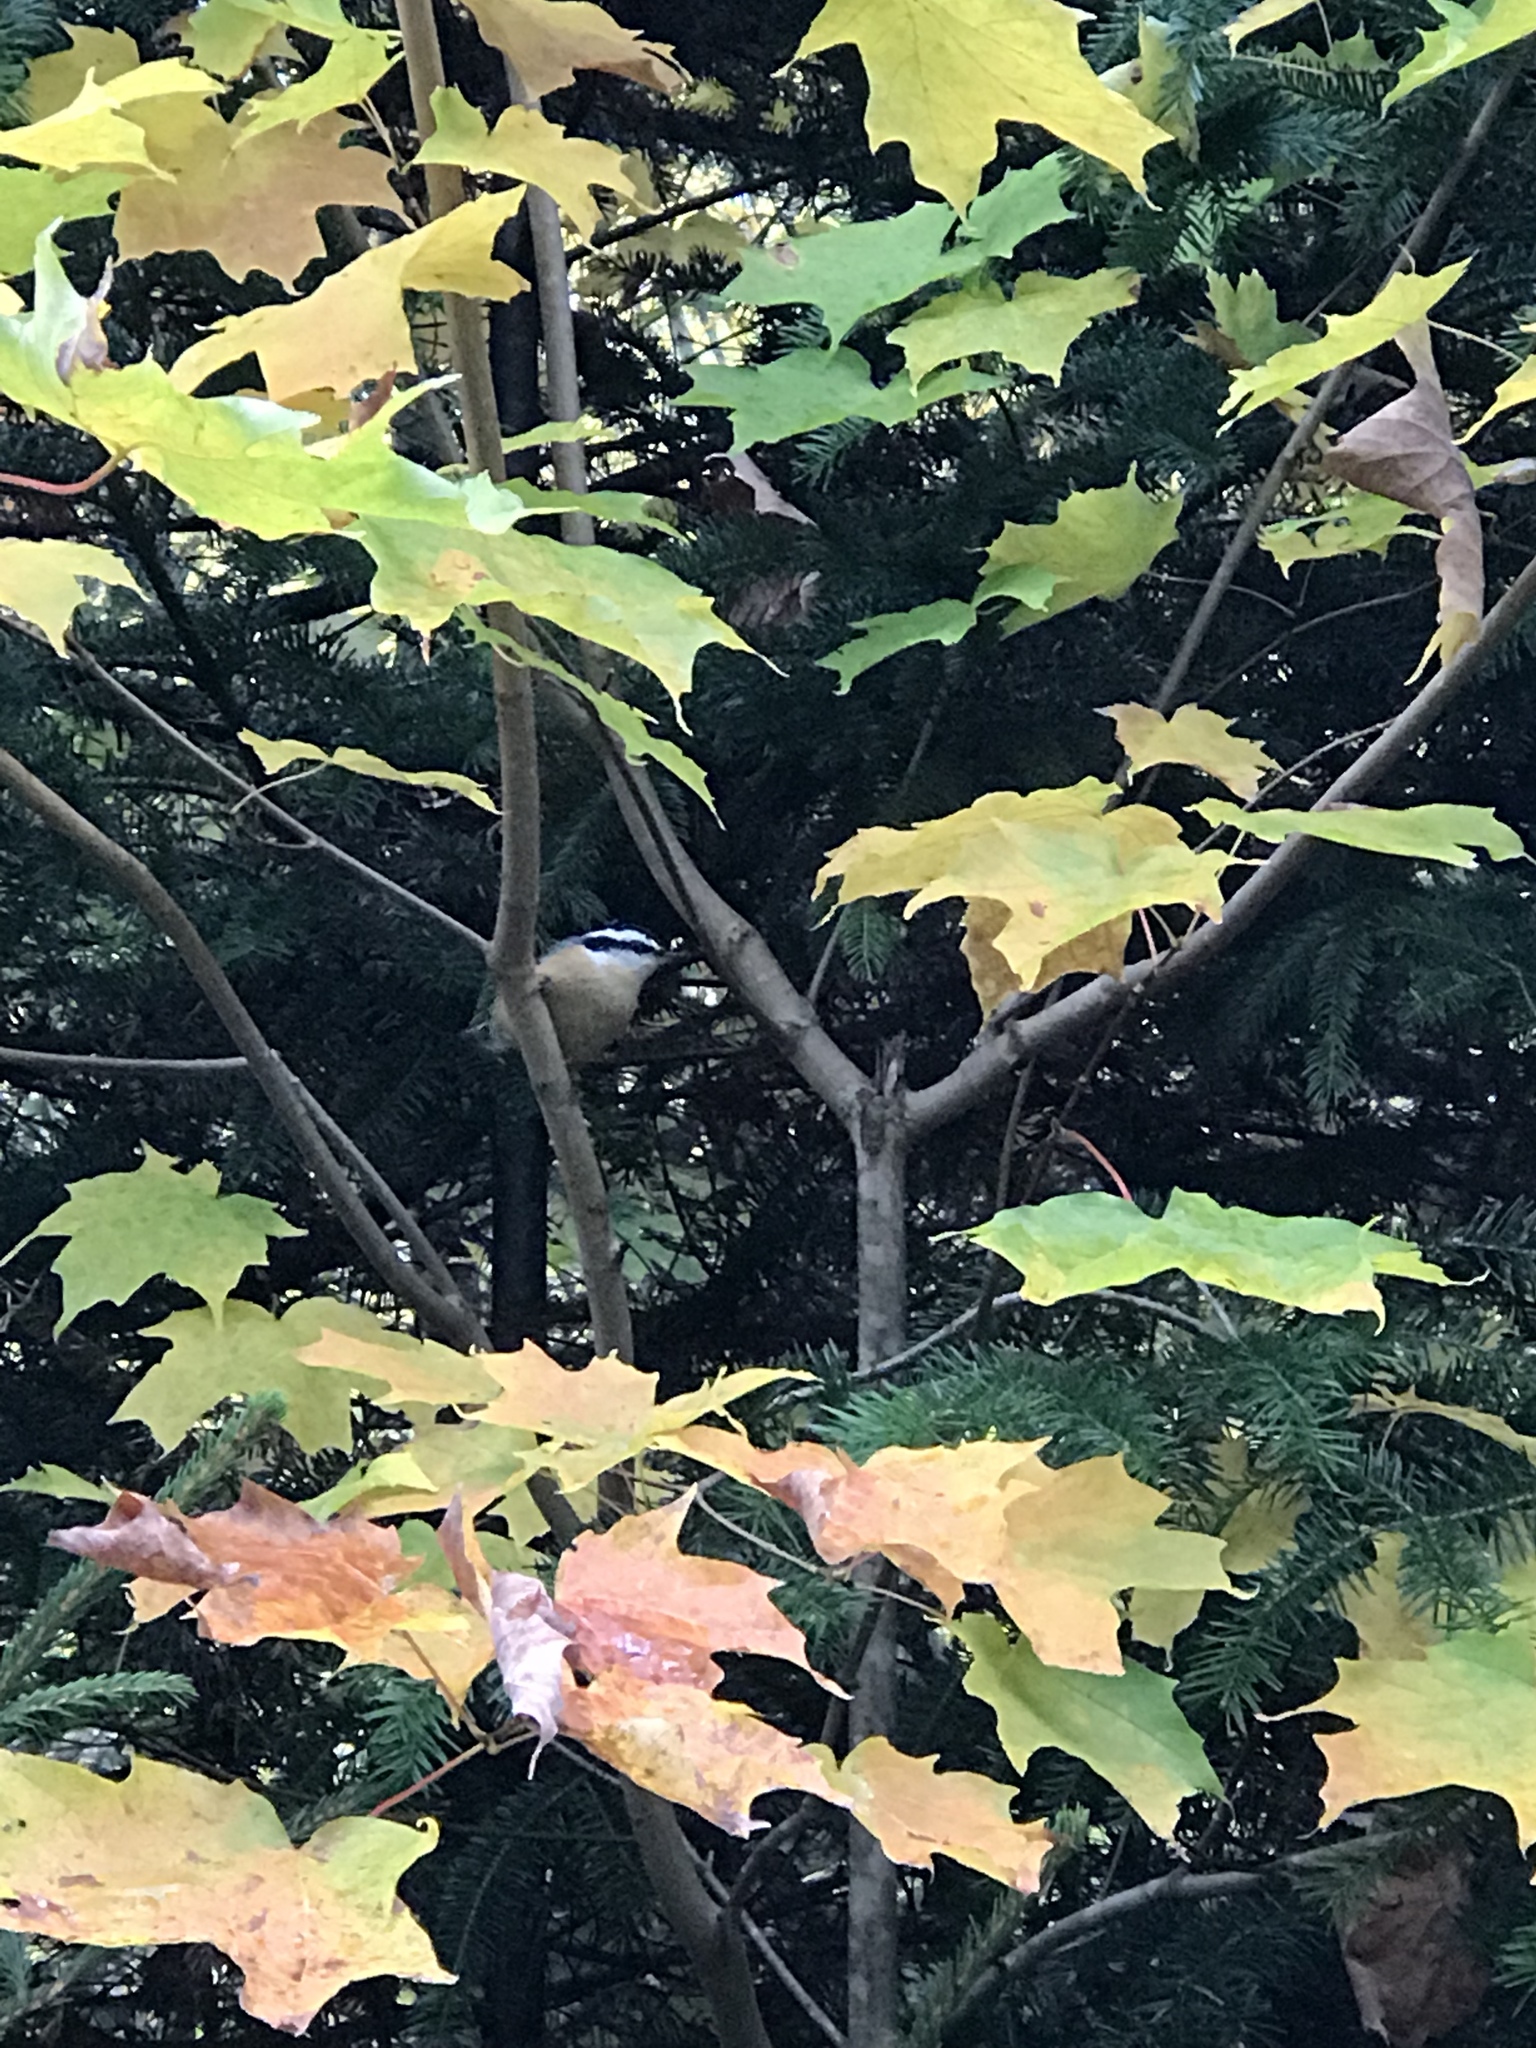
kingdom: Animalia
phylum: Chordata
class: Aves
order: Passeriformes
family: Sittidae
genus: Sitta
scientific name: Sitta canadensis
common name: Red-breasted nuthatch
